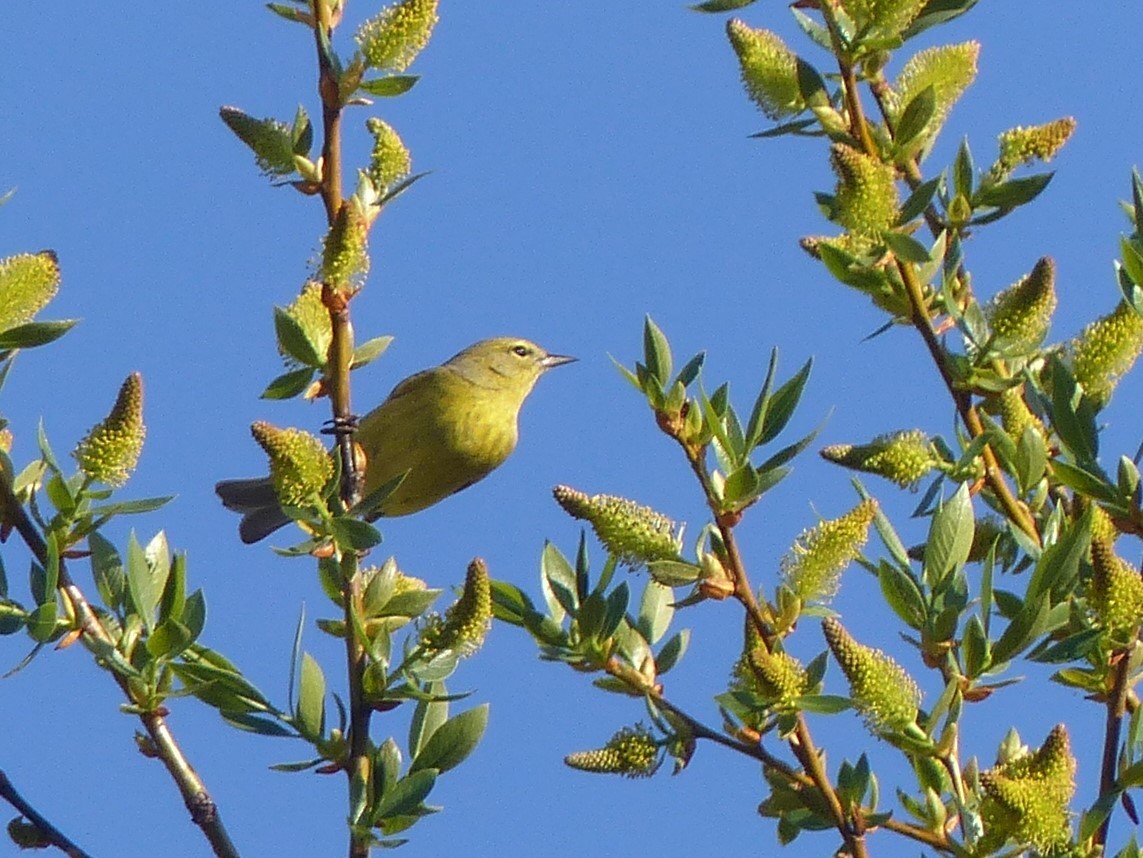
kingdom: Animalia
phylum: Chordata
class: Aves
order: Passeriformes
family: Parulidae
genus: Leiothlypis
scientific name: Leiothlypis celata
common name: Orange-crowned warbler
